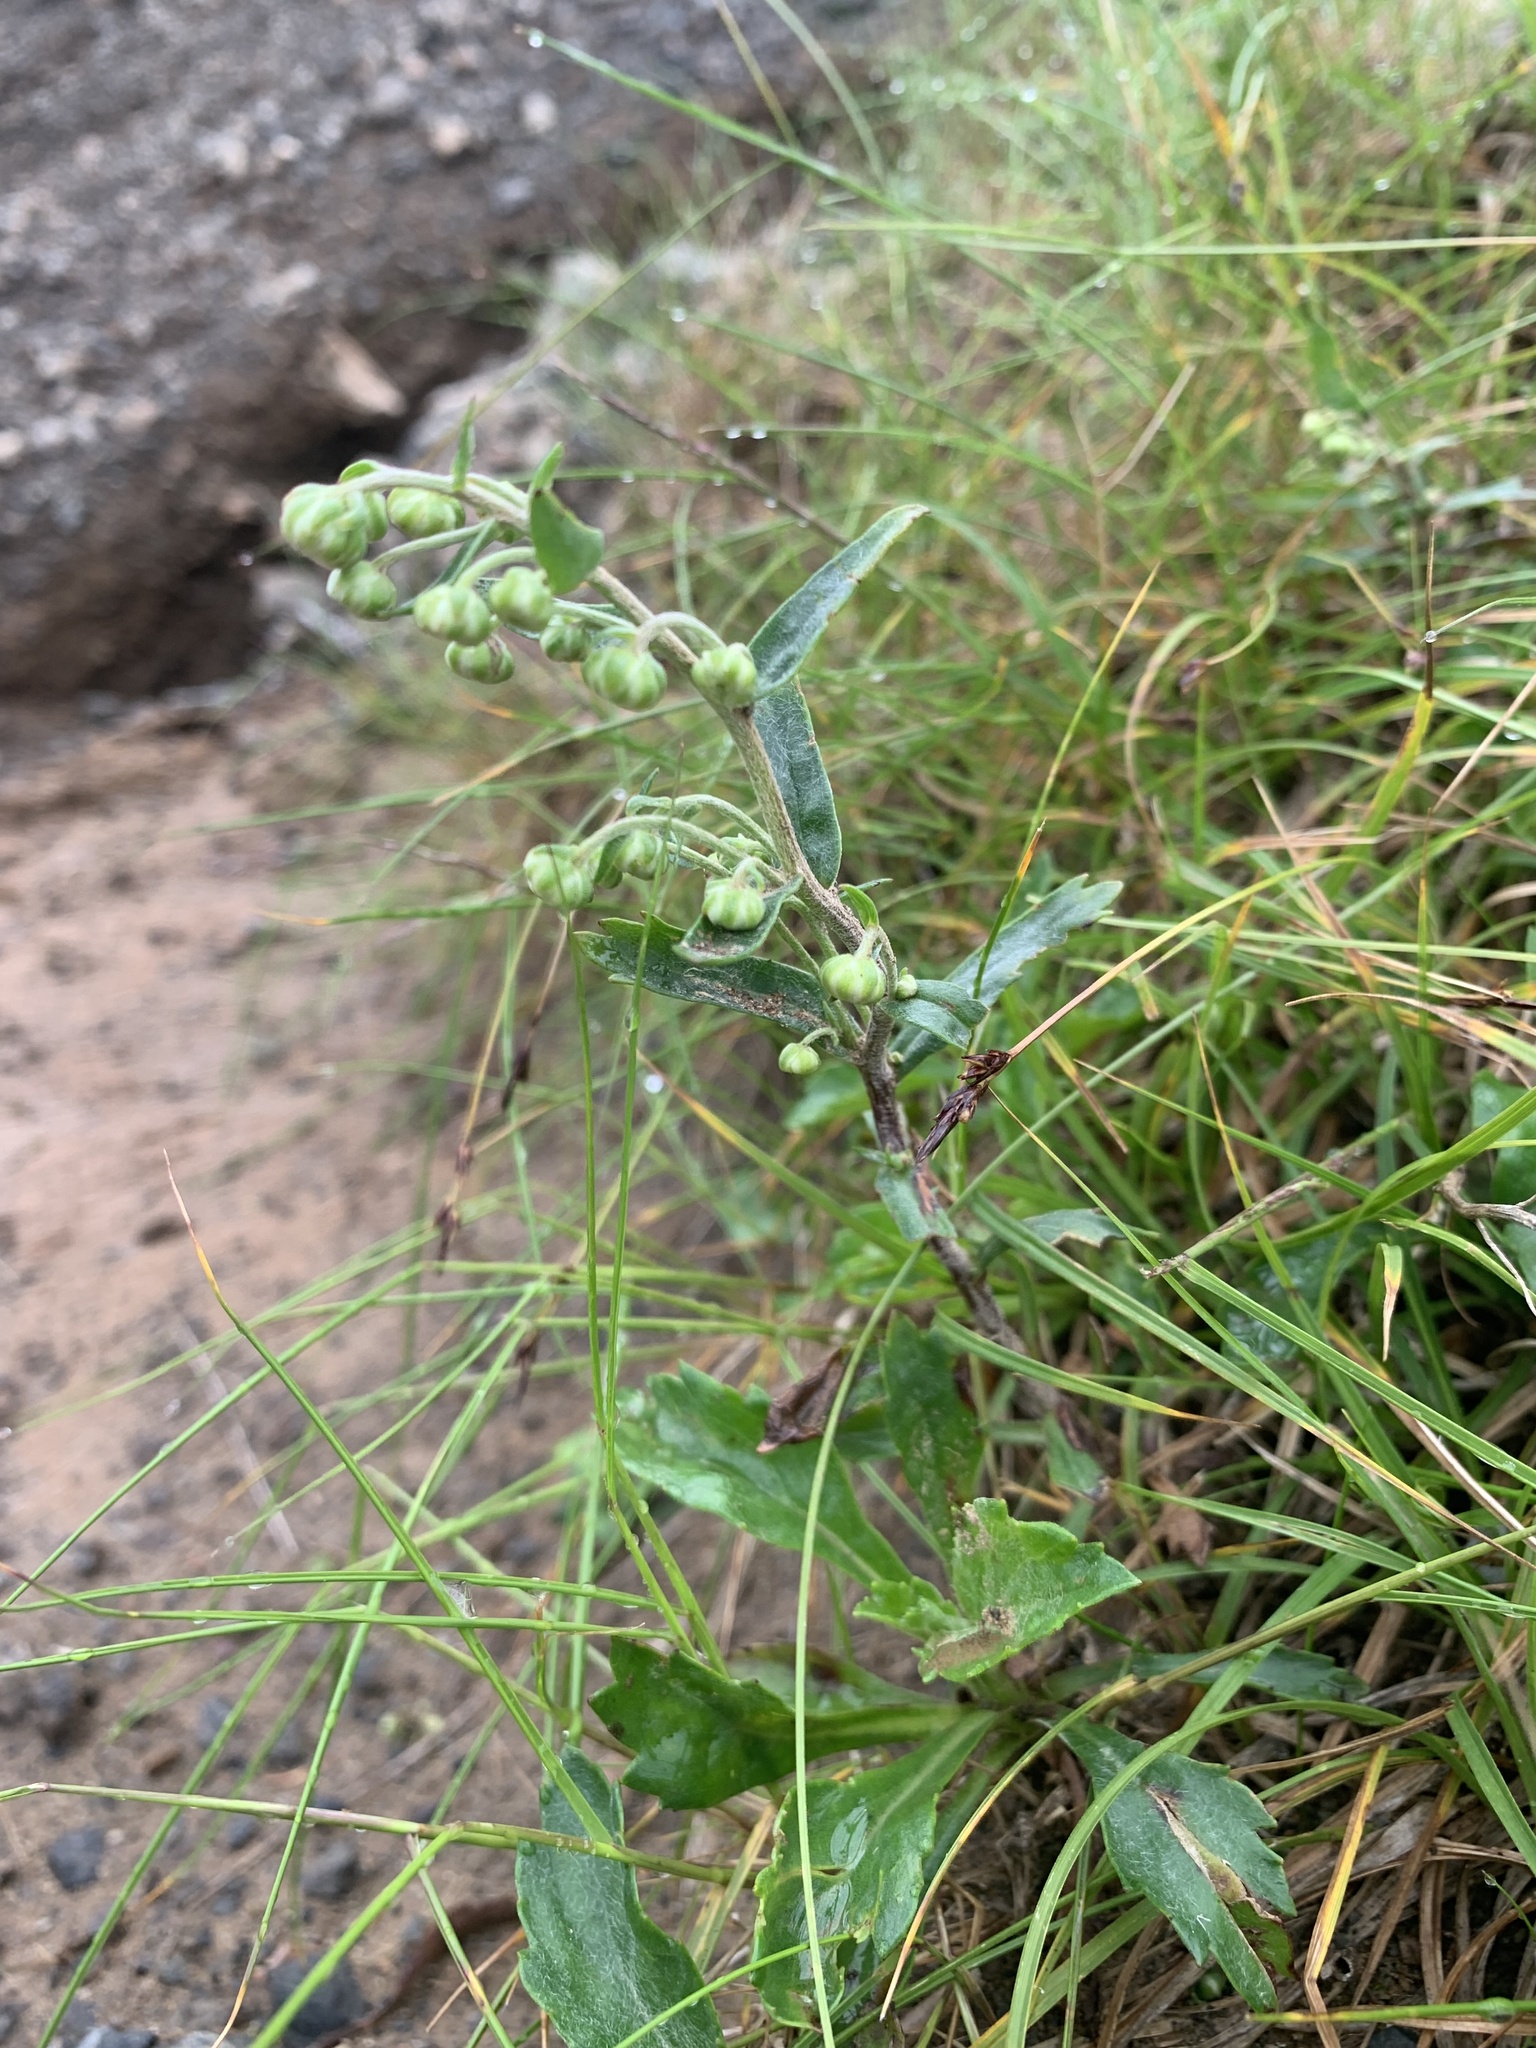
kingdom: Plantae
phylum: Tracheophyta
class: Magnoliopsida
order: Asterales
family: Asteraceae
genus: Artemisia
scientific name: Artemisia pedunculosa
